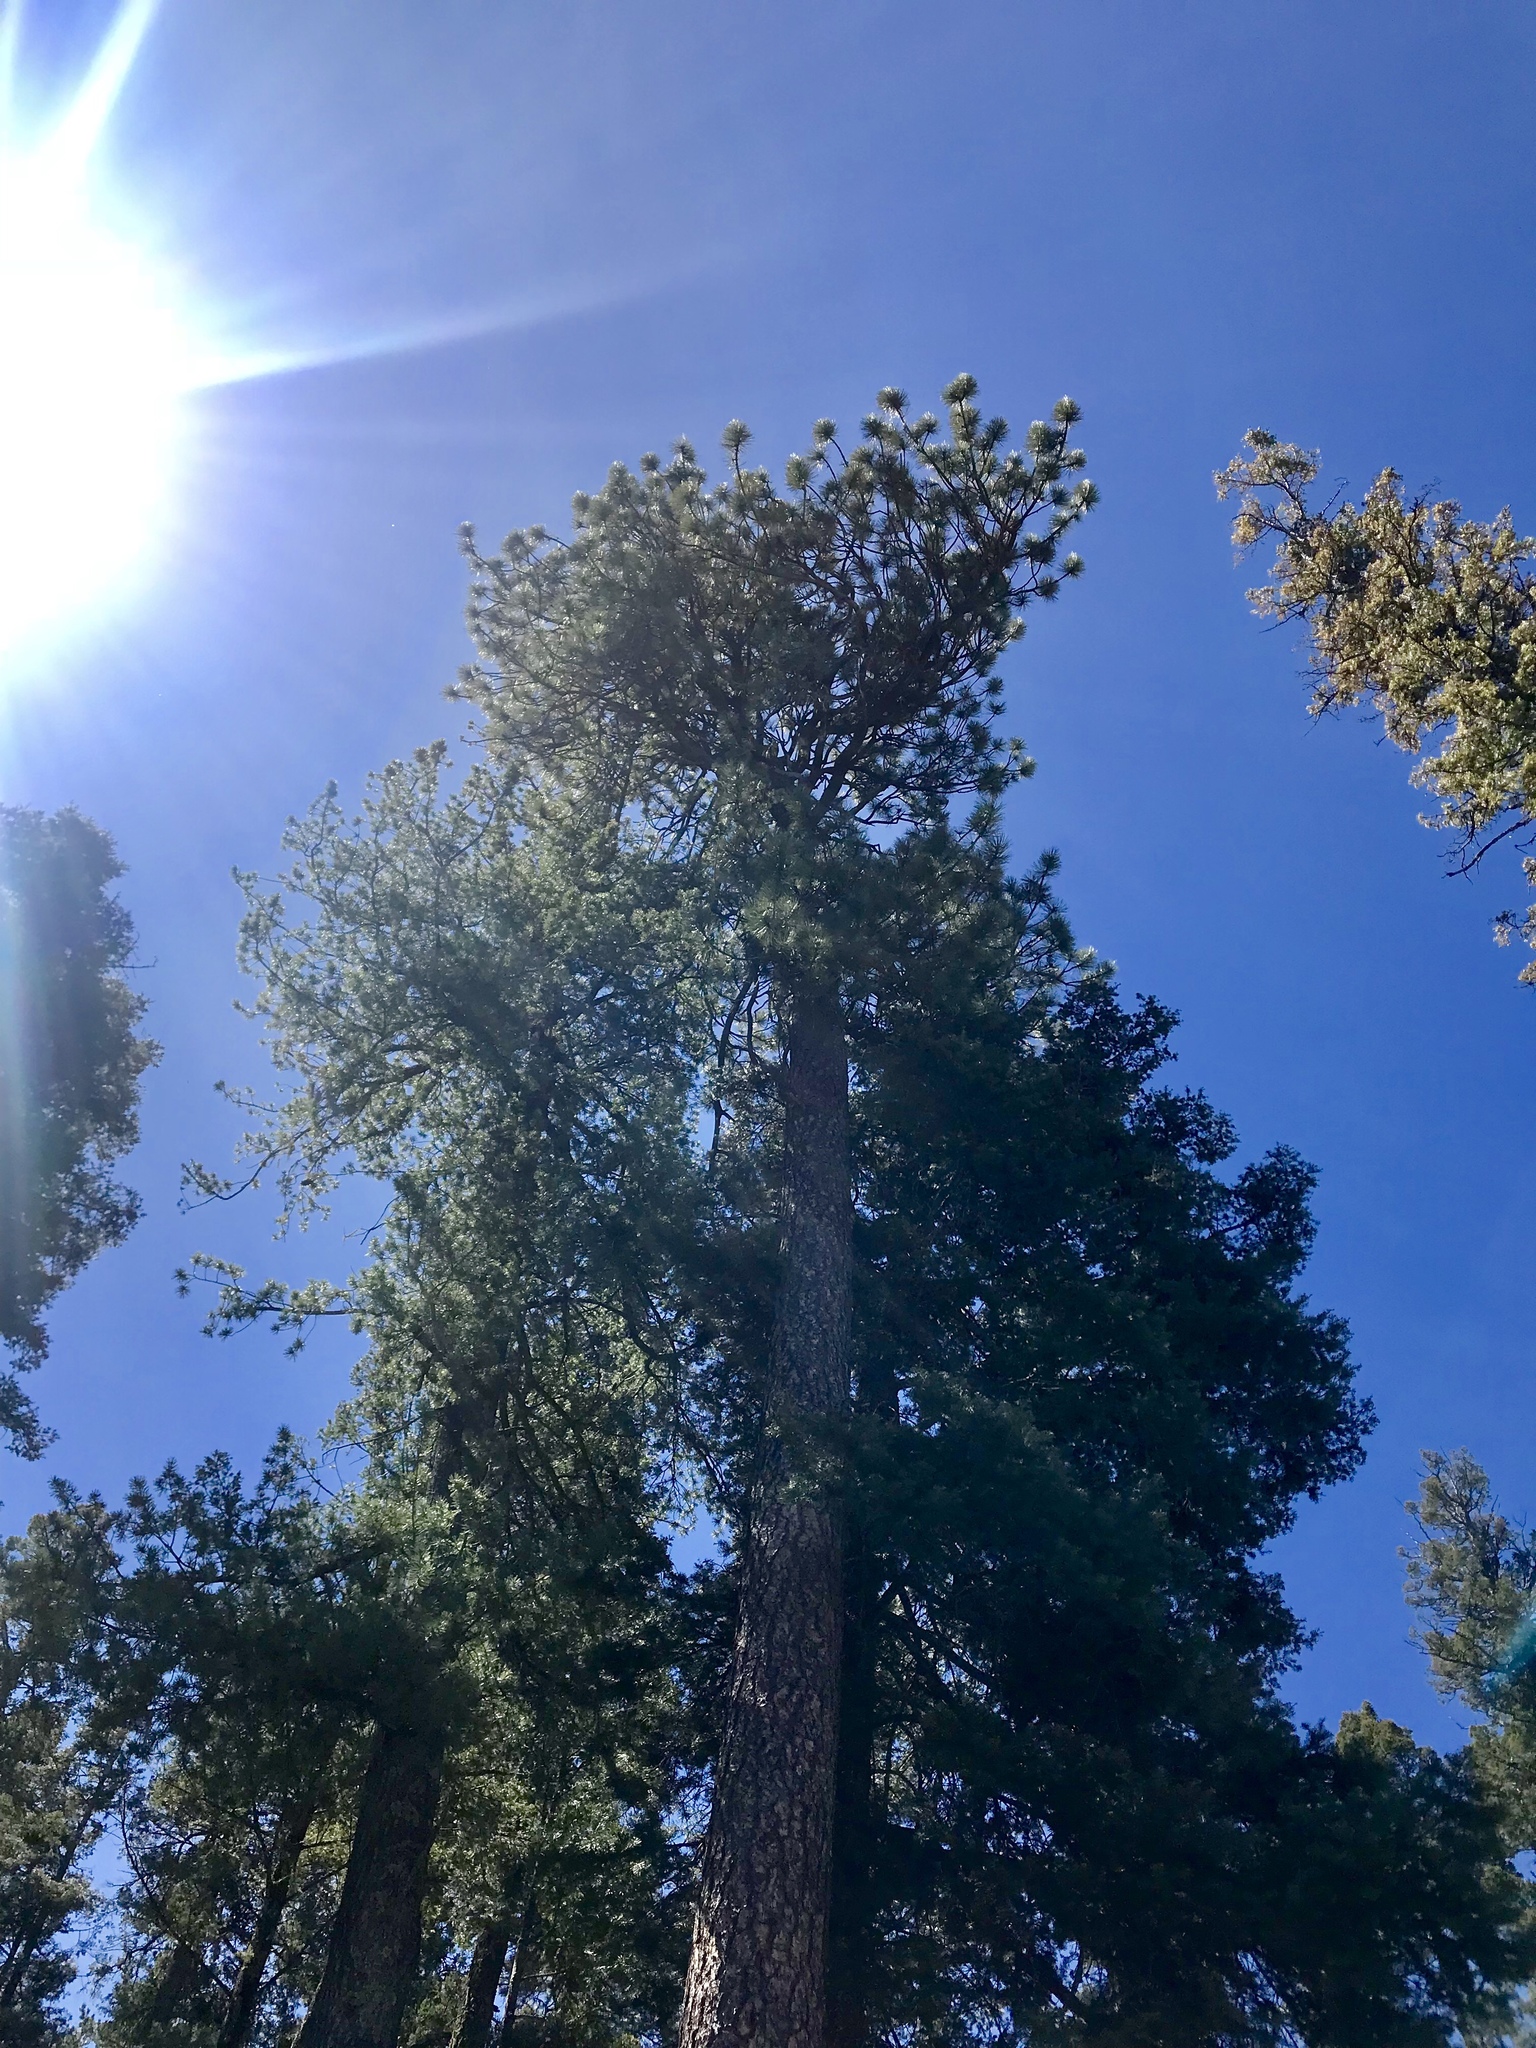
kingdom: Plantae
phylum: Tracheophyta
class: Pinopsida
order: Pinales
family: Pinaceae
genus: Pinus
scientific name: Pinus ponderosa
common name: Western yellow-pine
